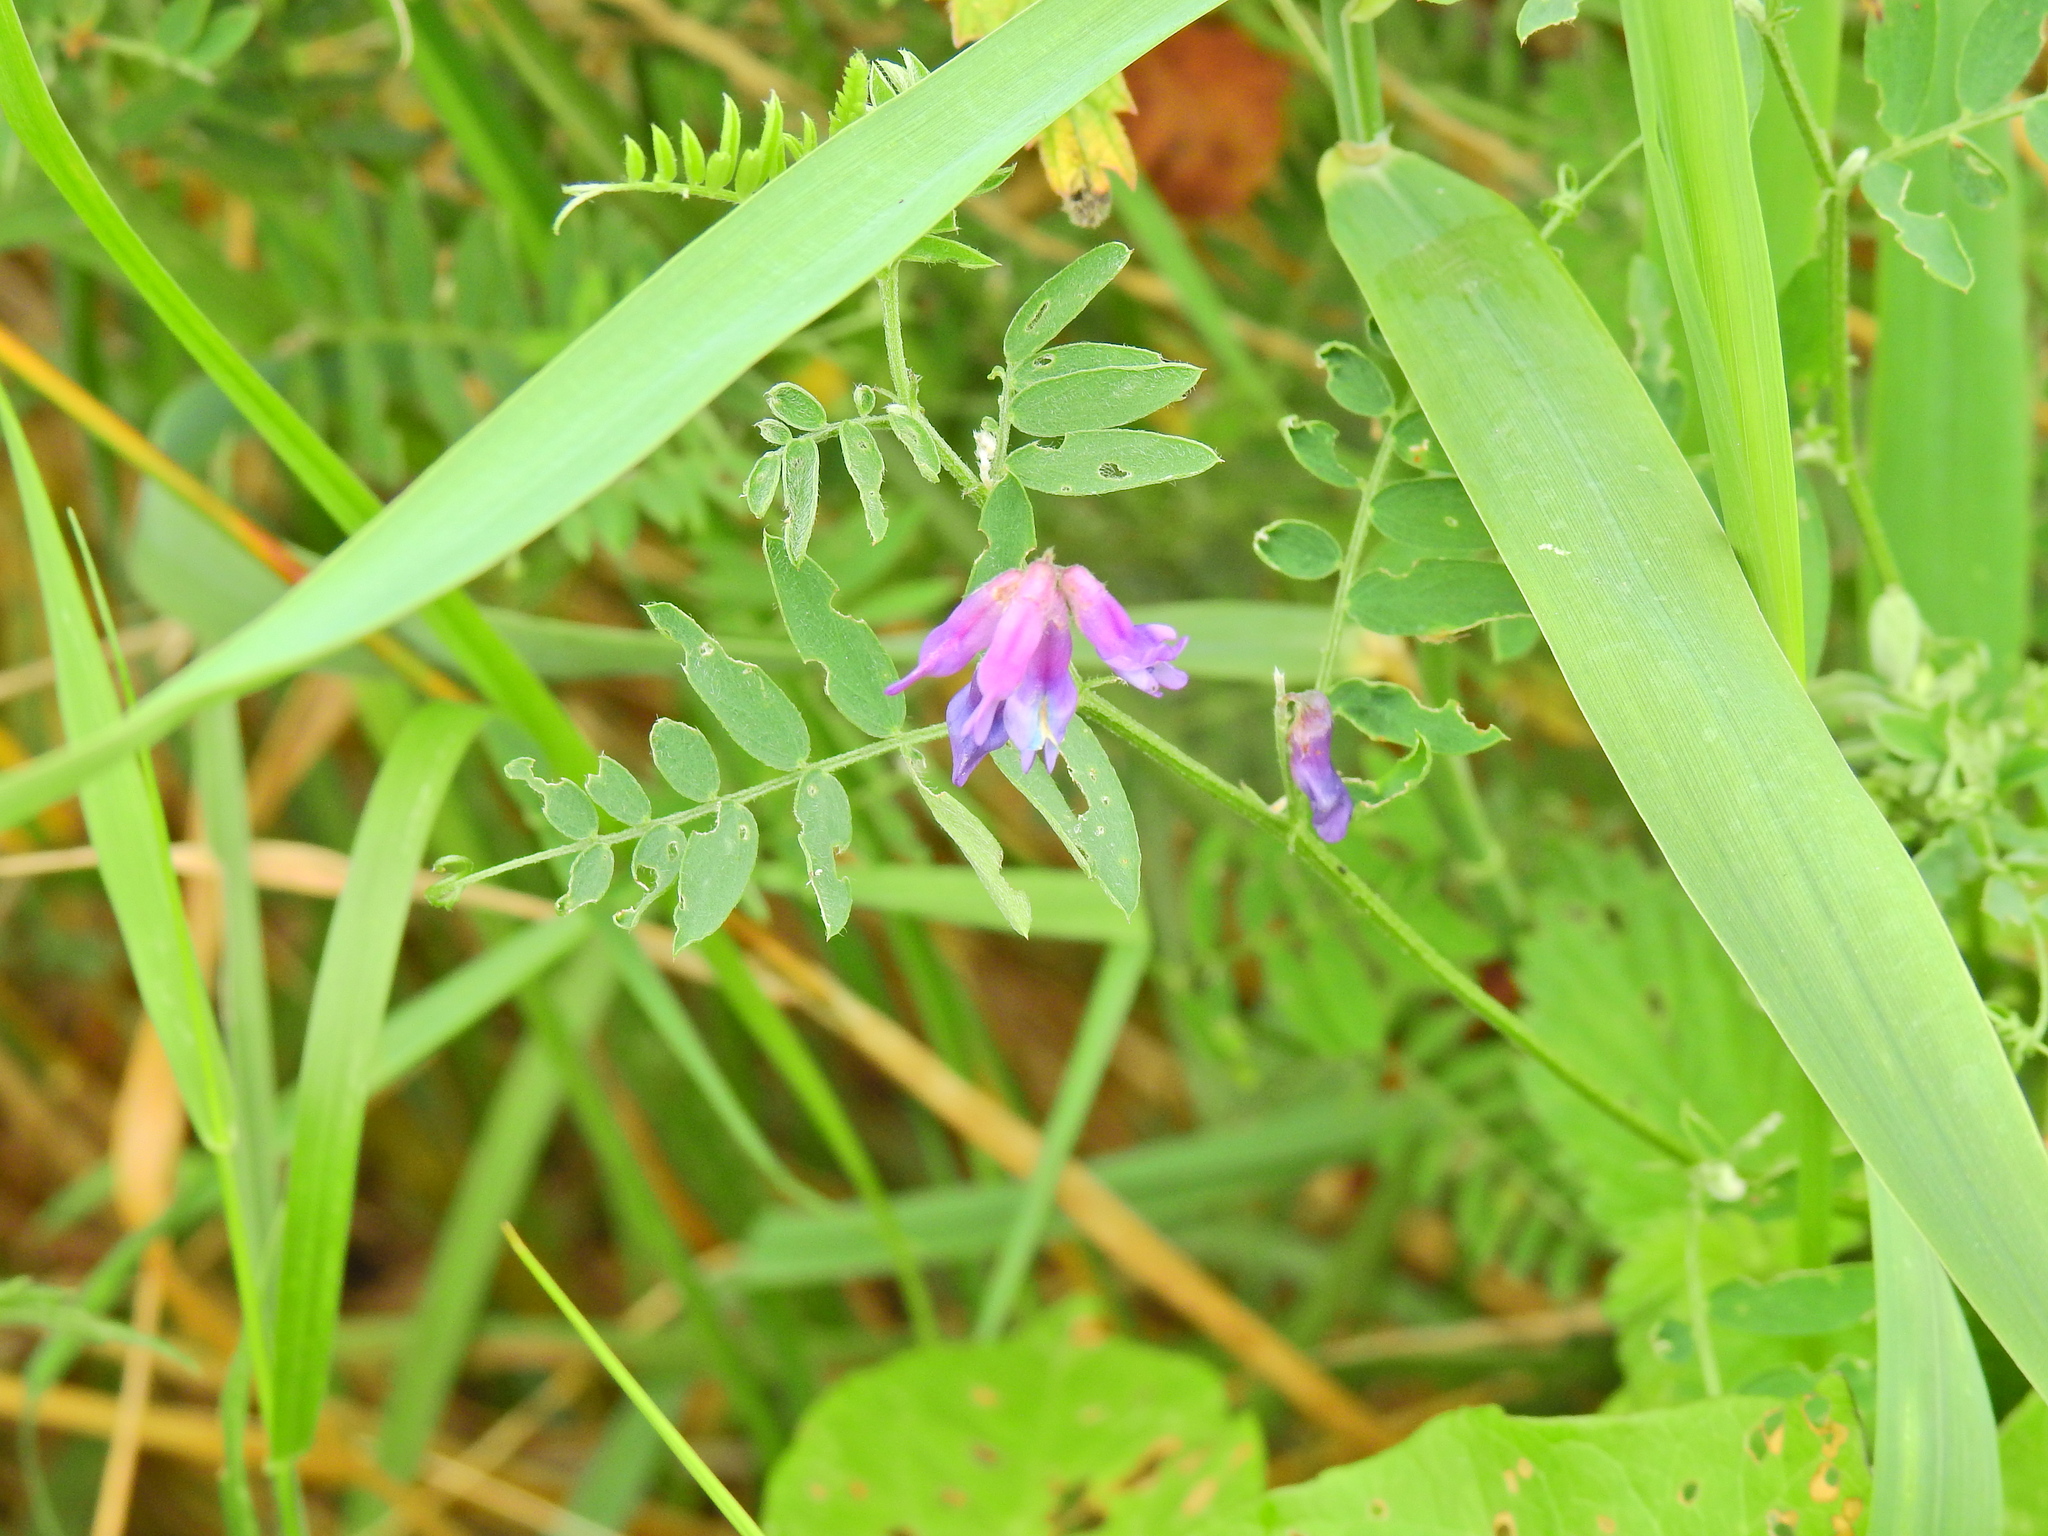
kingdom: Plantae
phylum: Tracheophyta
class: Magnoliopsida
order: Fabales
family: Fabaceae
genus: Vicia
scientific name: Vicia cracca
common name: Bird vetch
